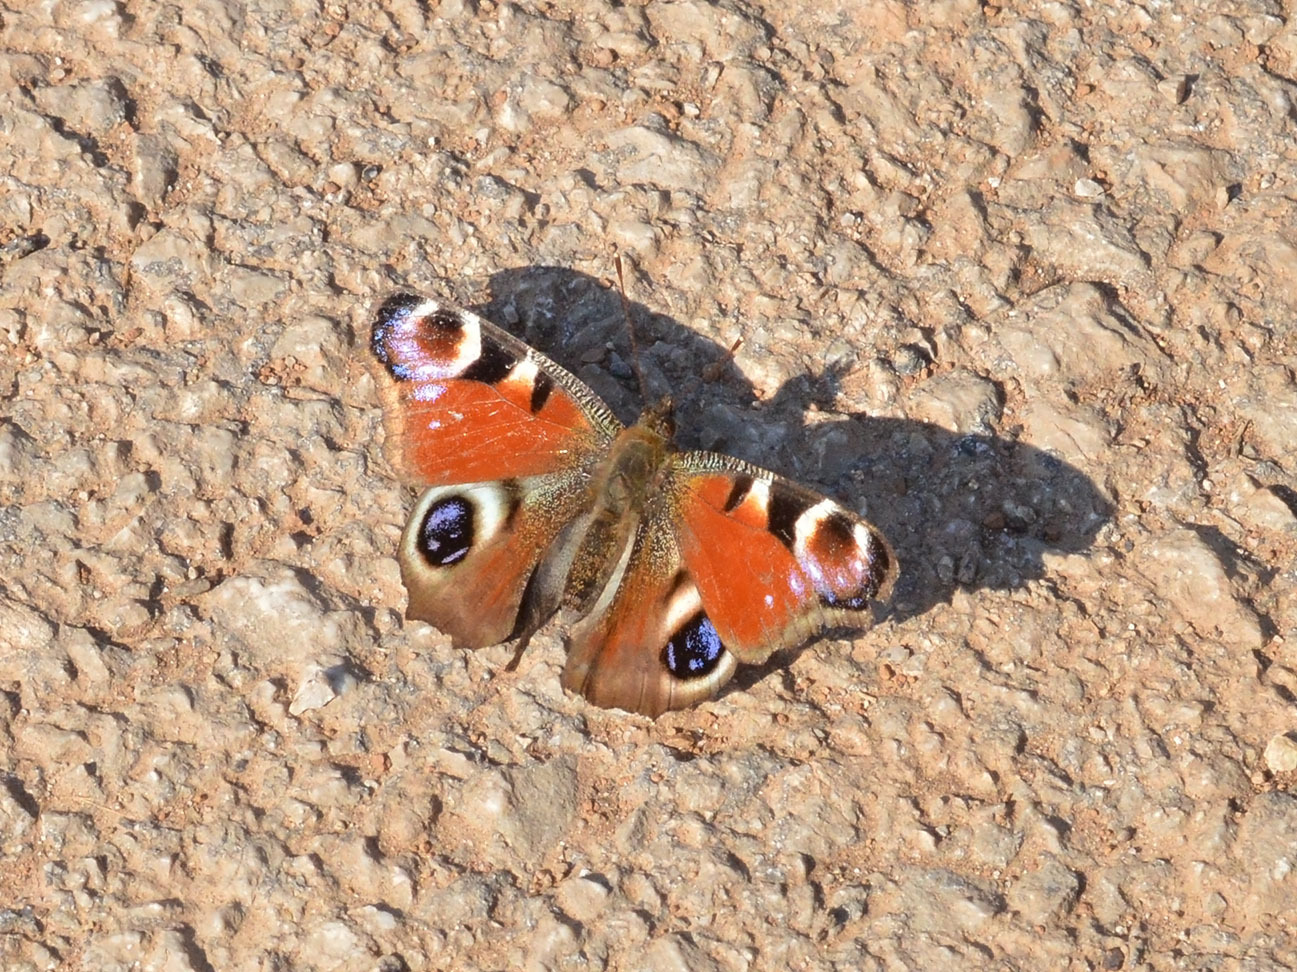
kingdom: Animalia
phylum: Arthropoda
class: Insecta
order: Lepidoptera
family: Nymphalidae
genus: Aglais
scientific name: Aglais io
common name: Peacock
